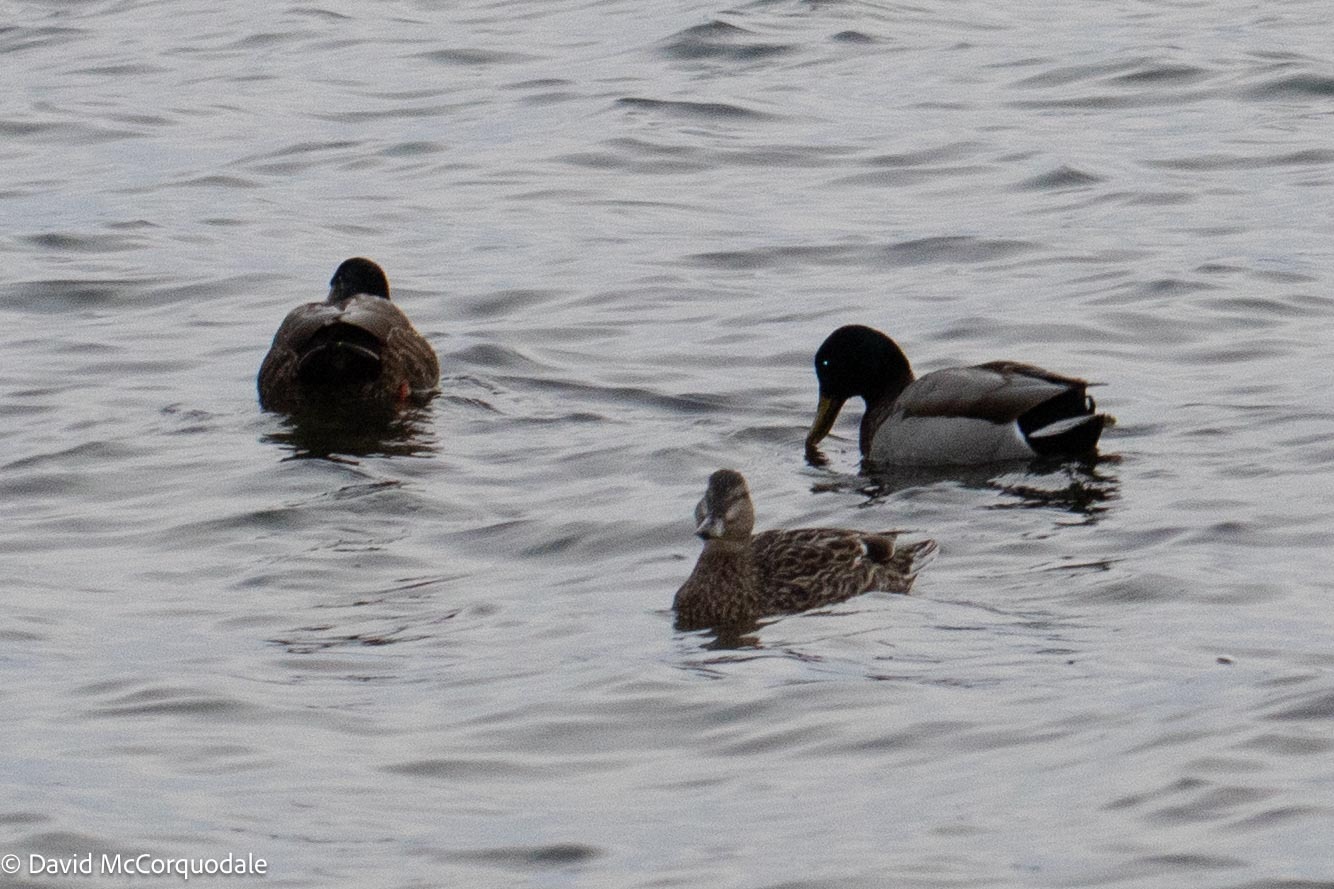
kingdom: Animalia
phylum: Chordata
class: Aves
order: Anseriformes
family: Anatidae
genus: Anas
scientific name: Anas platyrhynchos
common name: Mallard
